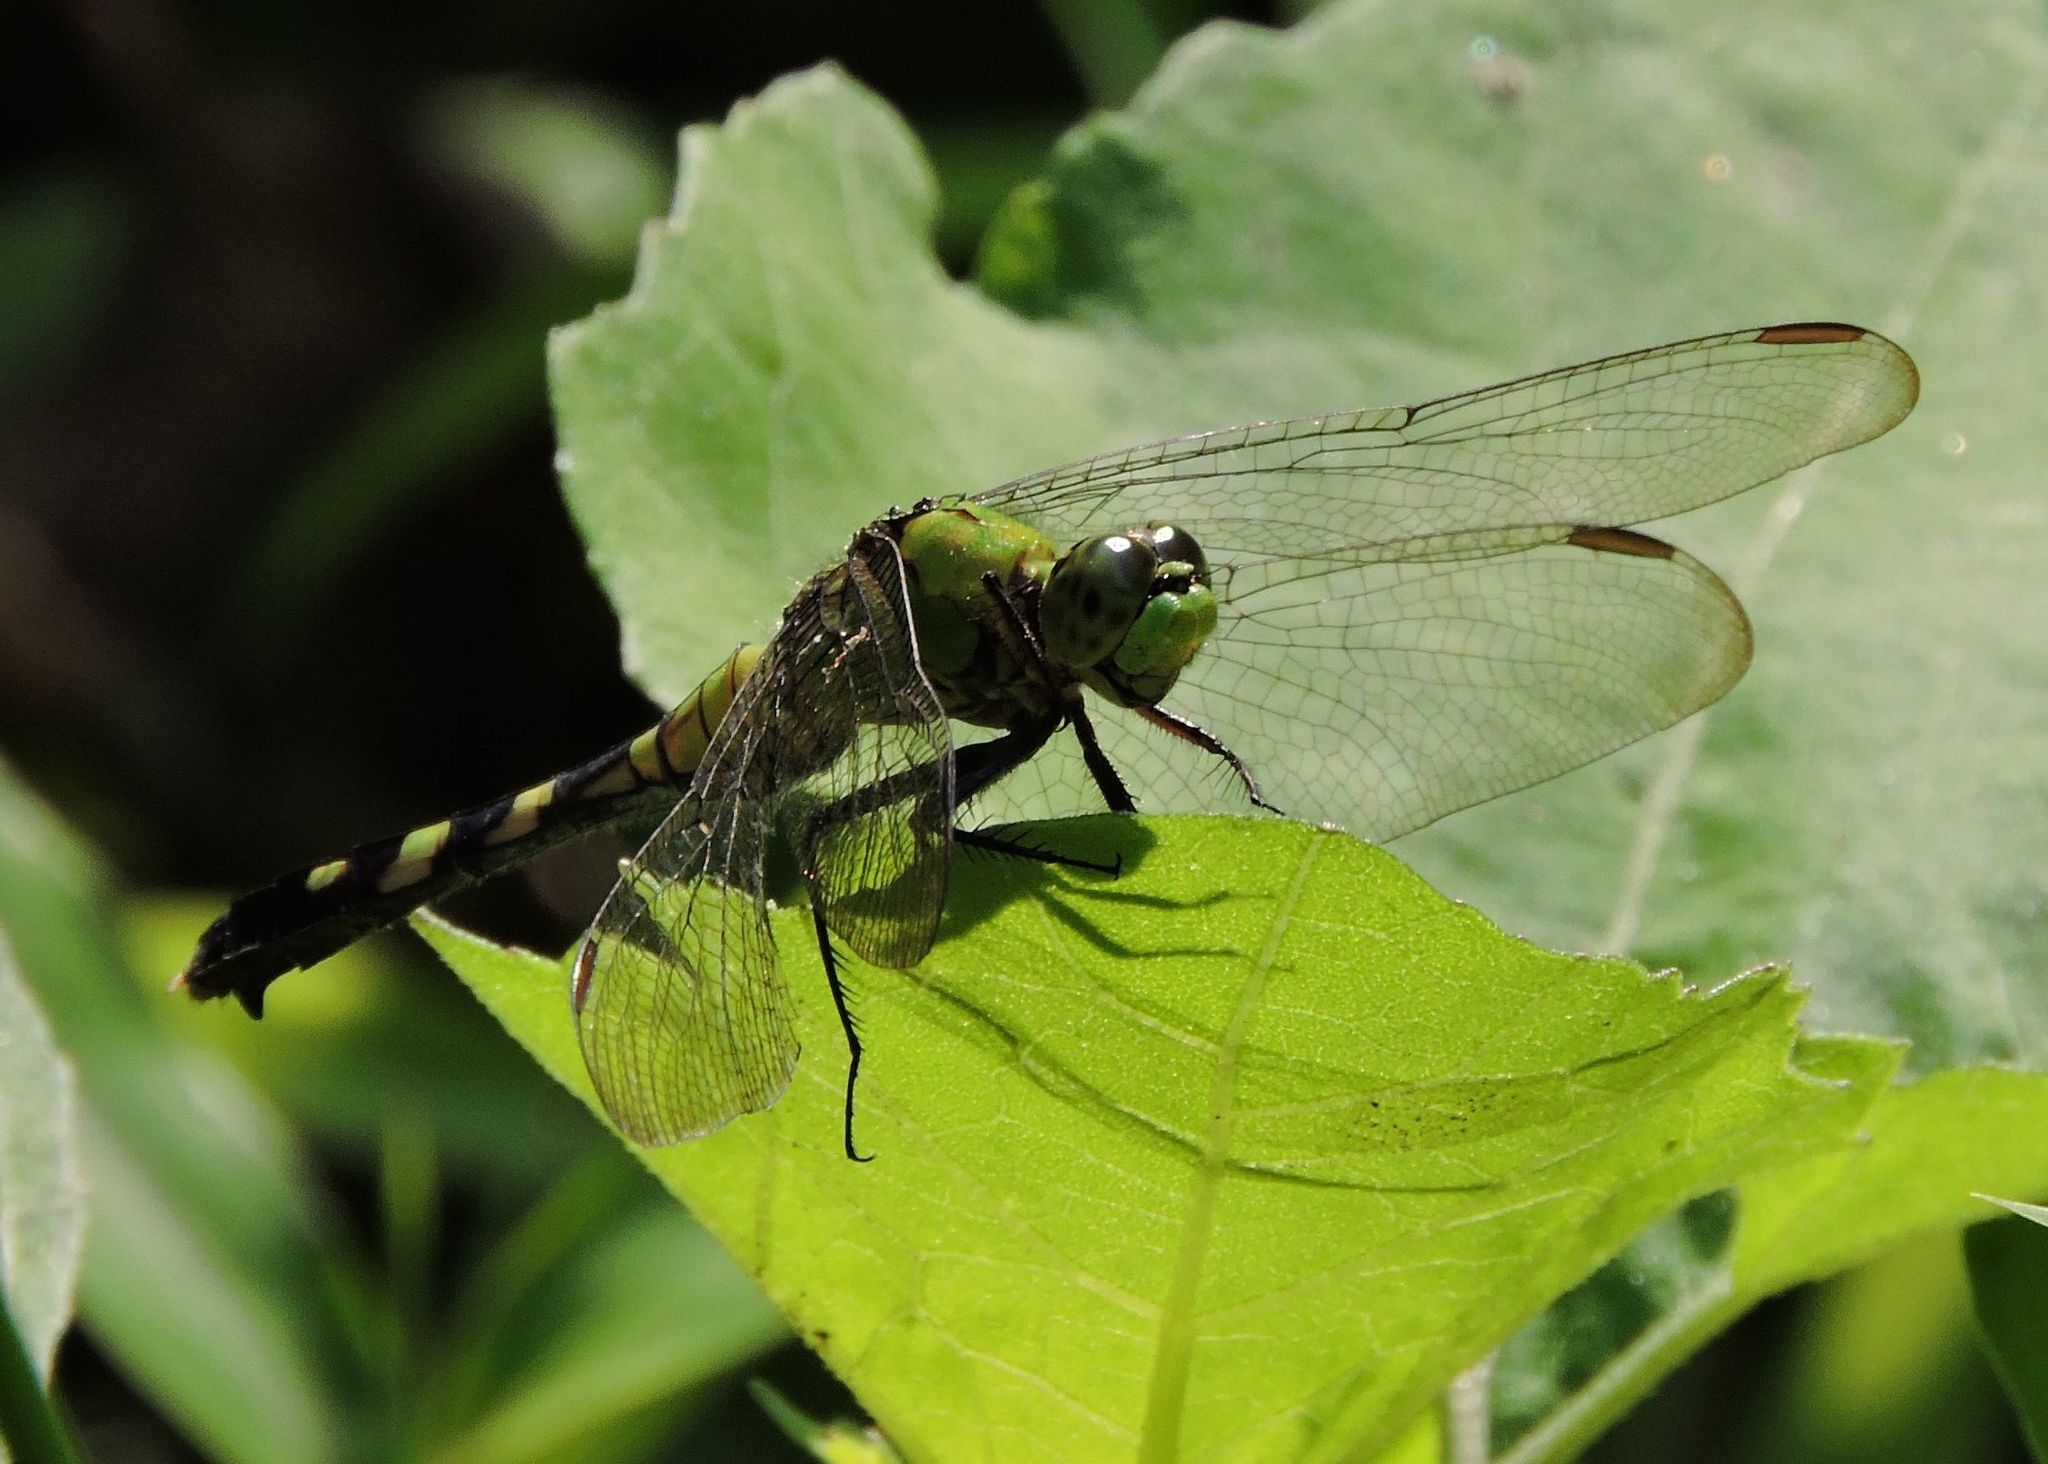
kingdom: Animalia
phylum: Arthropoda
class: Insecta
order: Odonata
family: Libellulidae
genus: Erythemis
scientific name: Erythemis simplicicollis
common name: Eastern pondhawk
